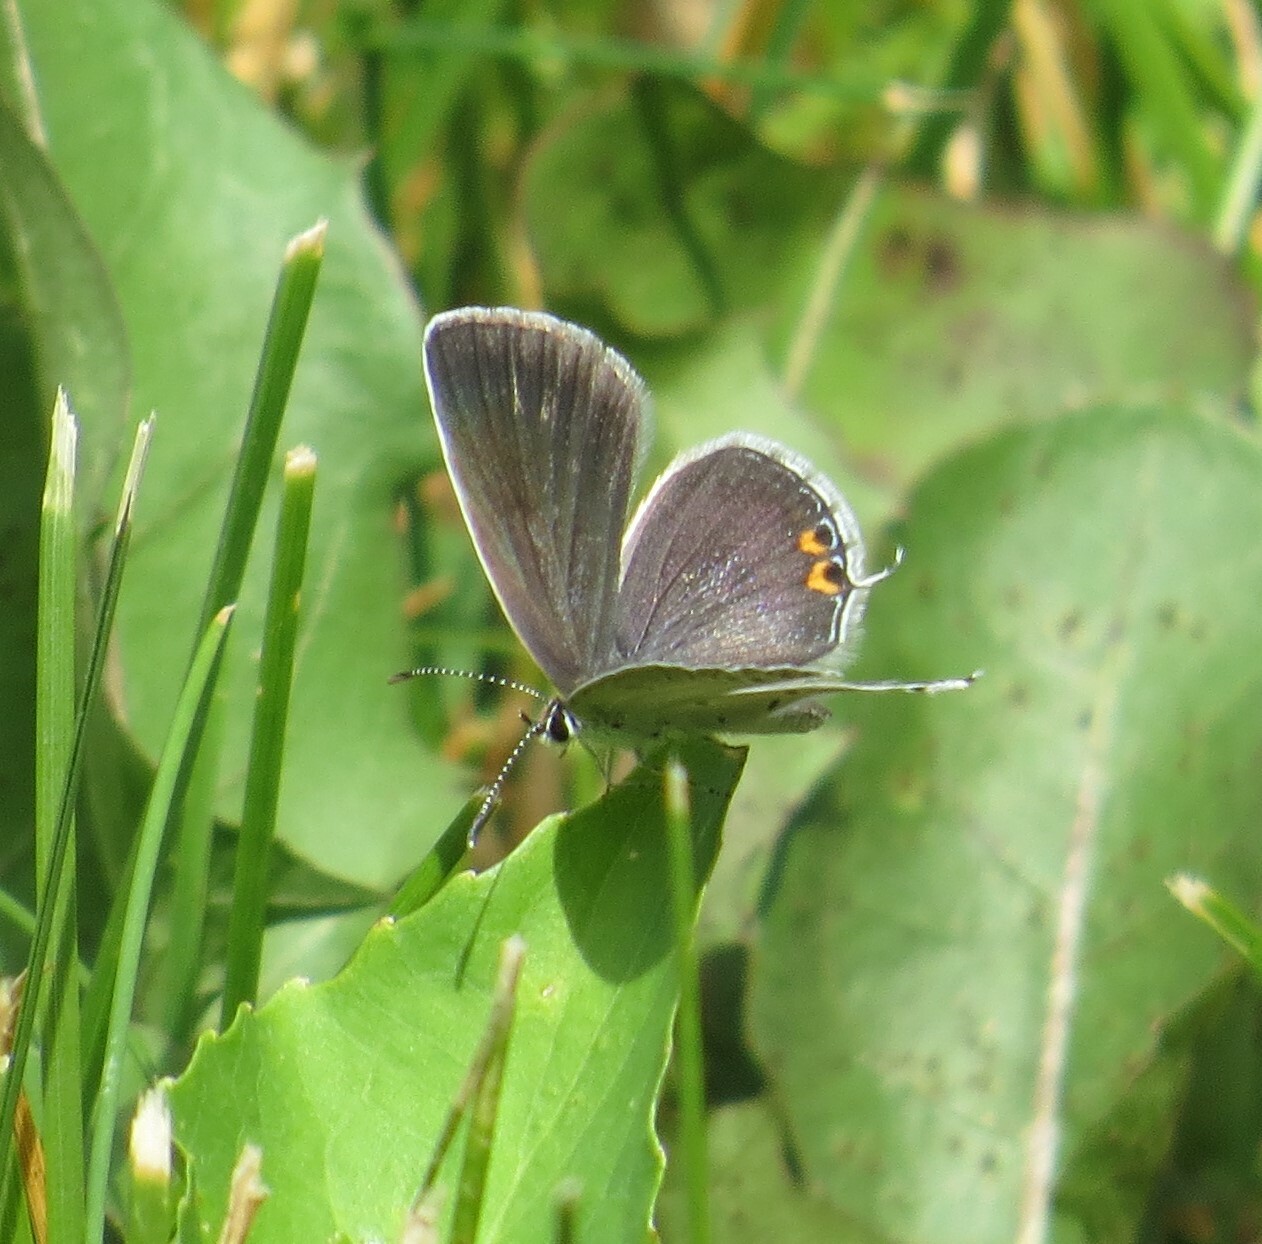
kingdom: Animalia
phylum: Arthropoda
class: Insecta
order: Lepidoptera
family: Lycaenidae
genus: Elkalyce
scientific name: Elkalyce comyntas
